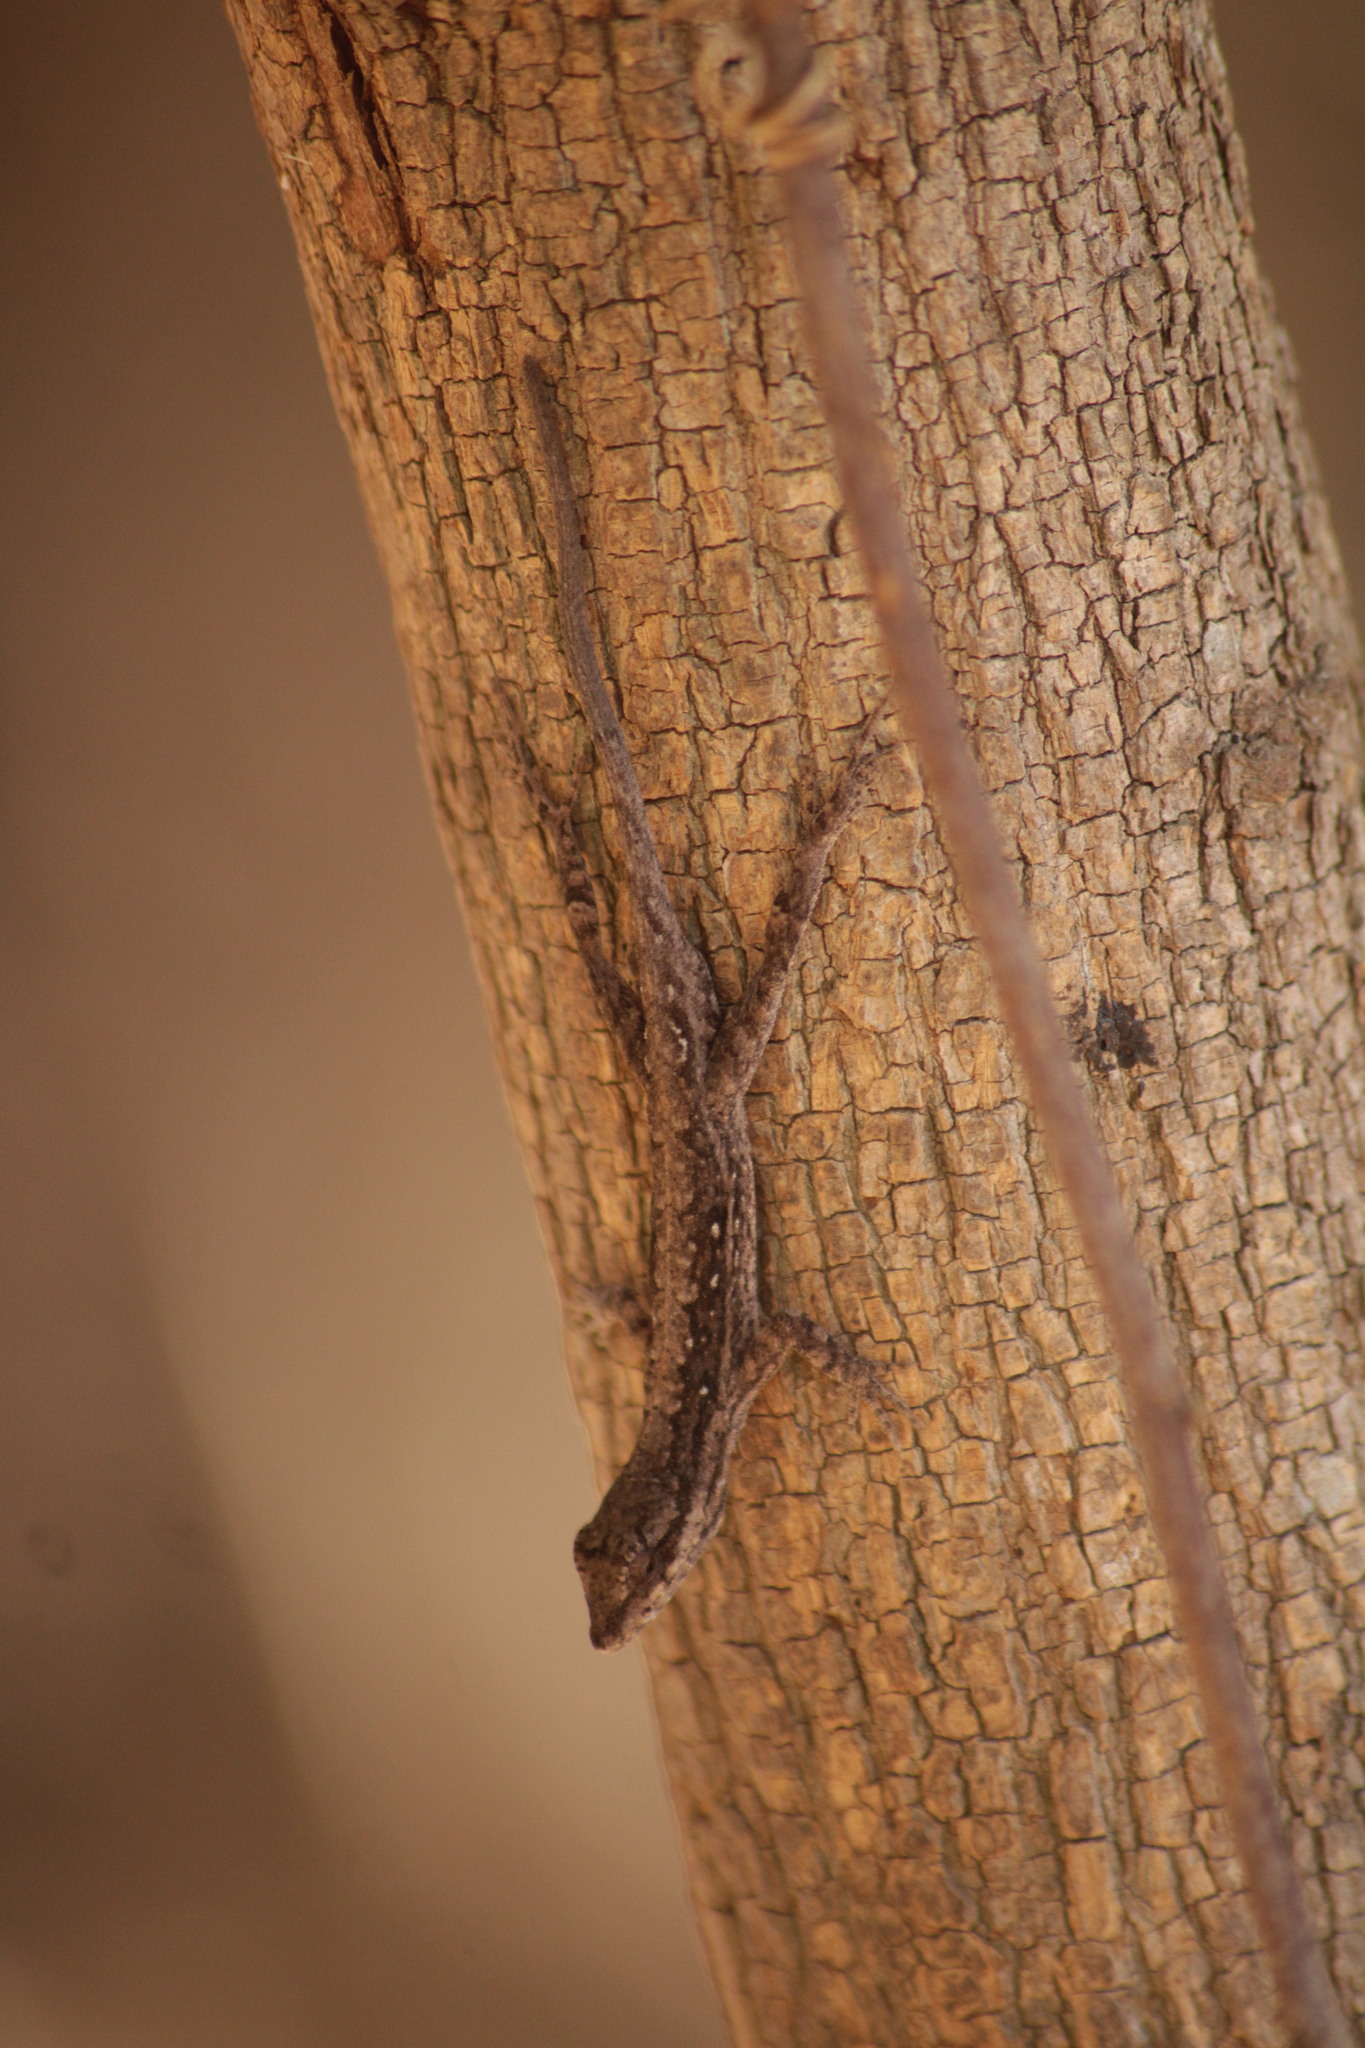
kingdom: Animalia
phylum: Chordata
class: Squamata
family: Dactyloidae
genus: Anolis
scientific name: Anolis nebulosus
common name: Clouded anole
